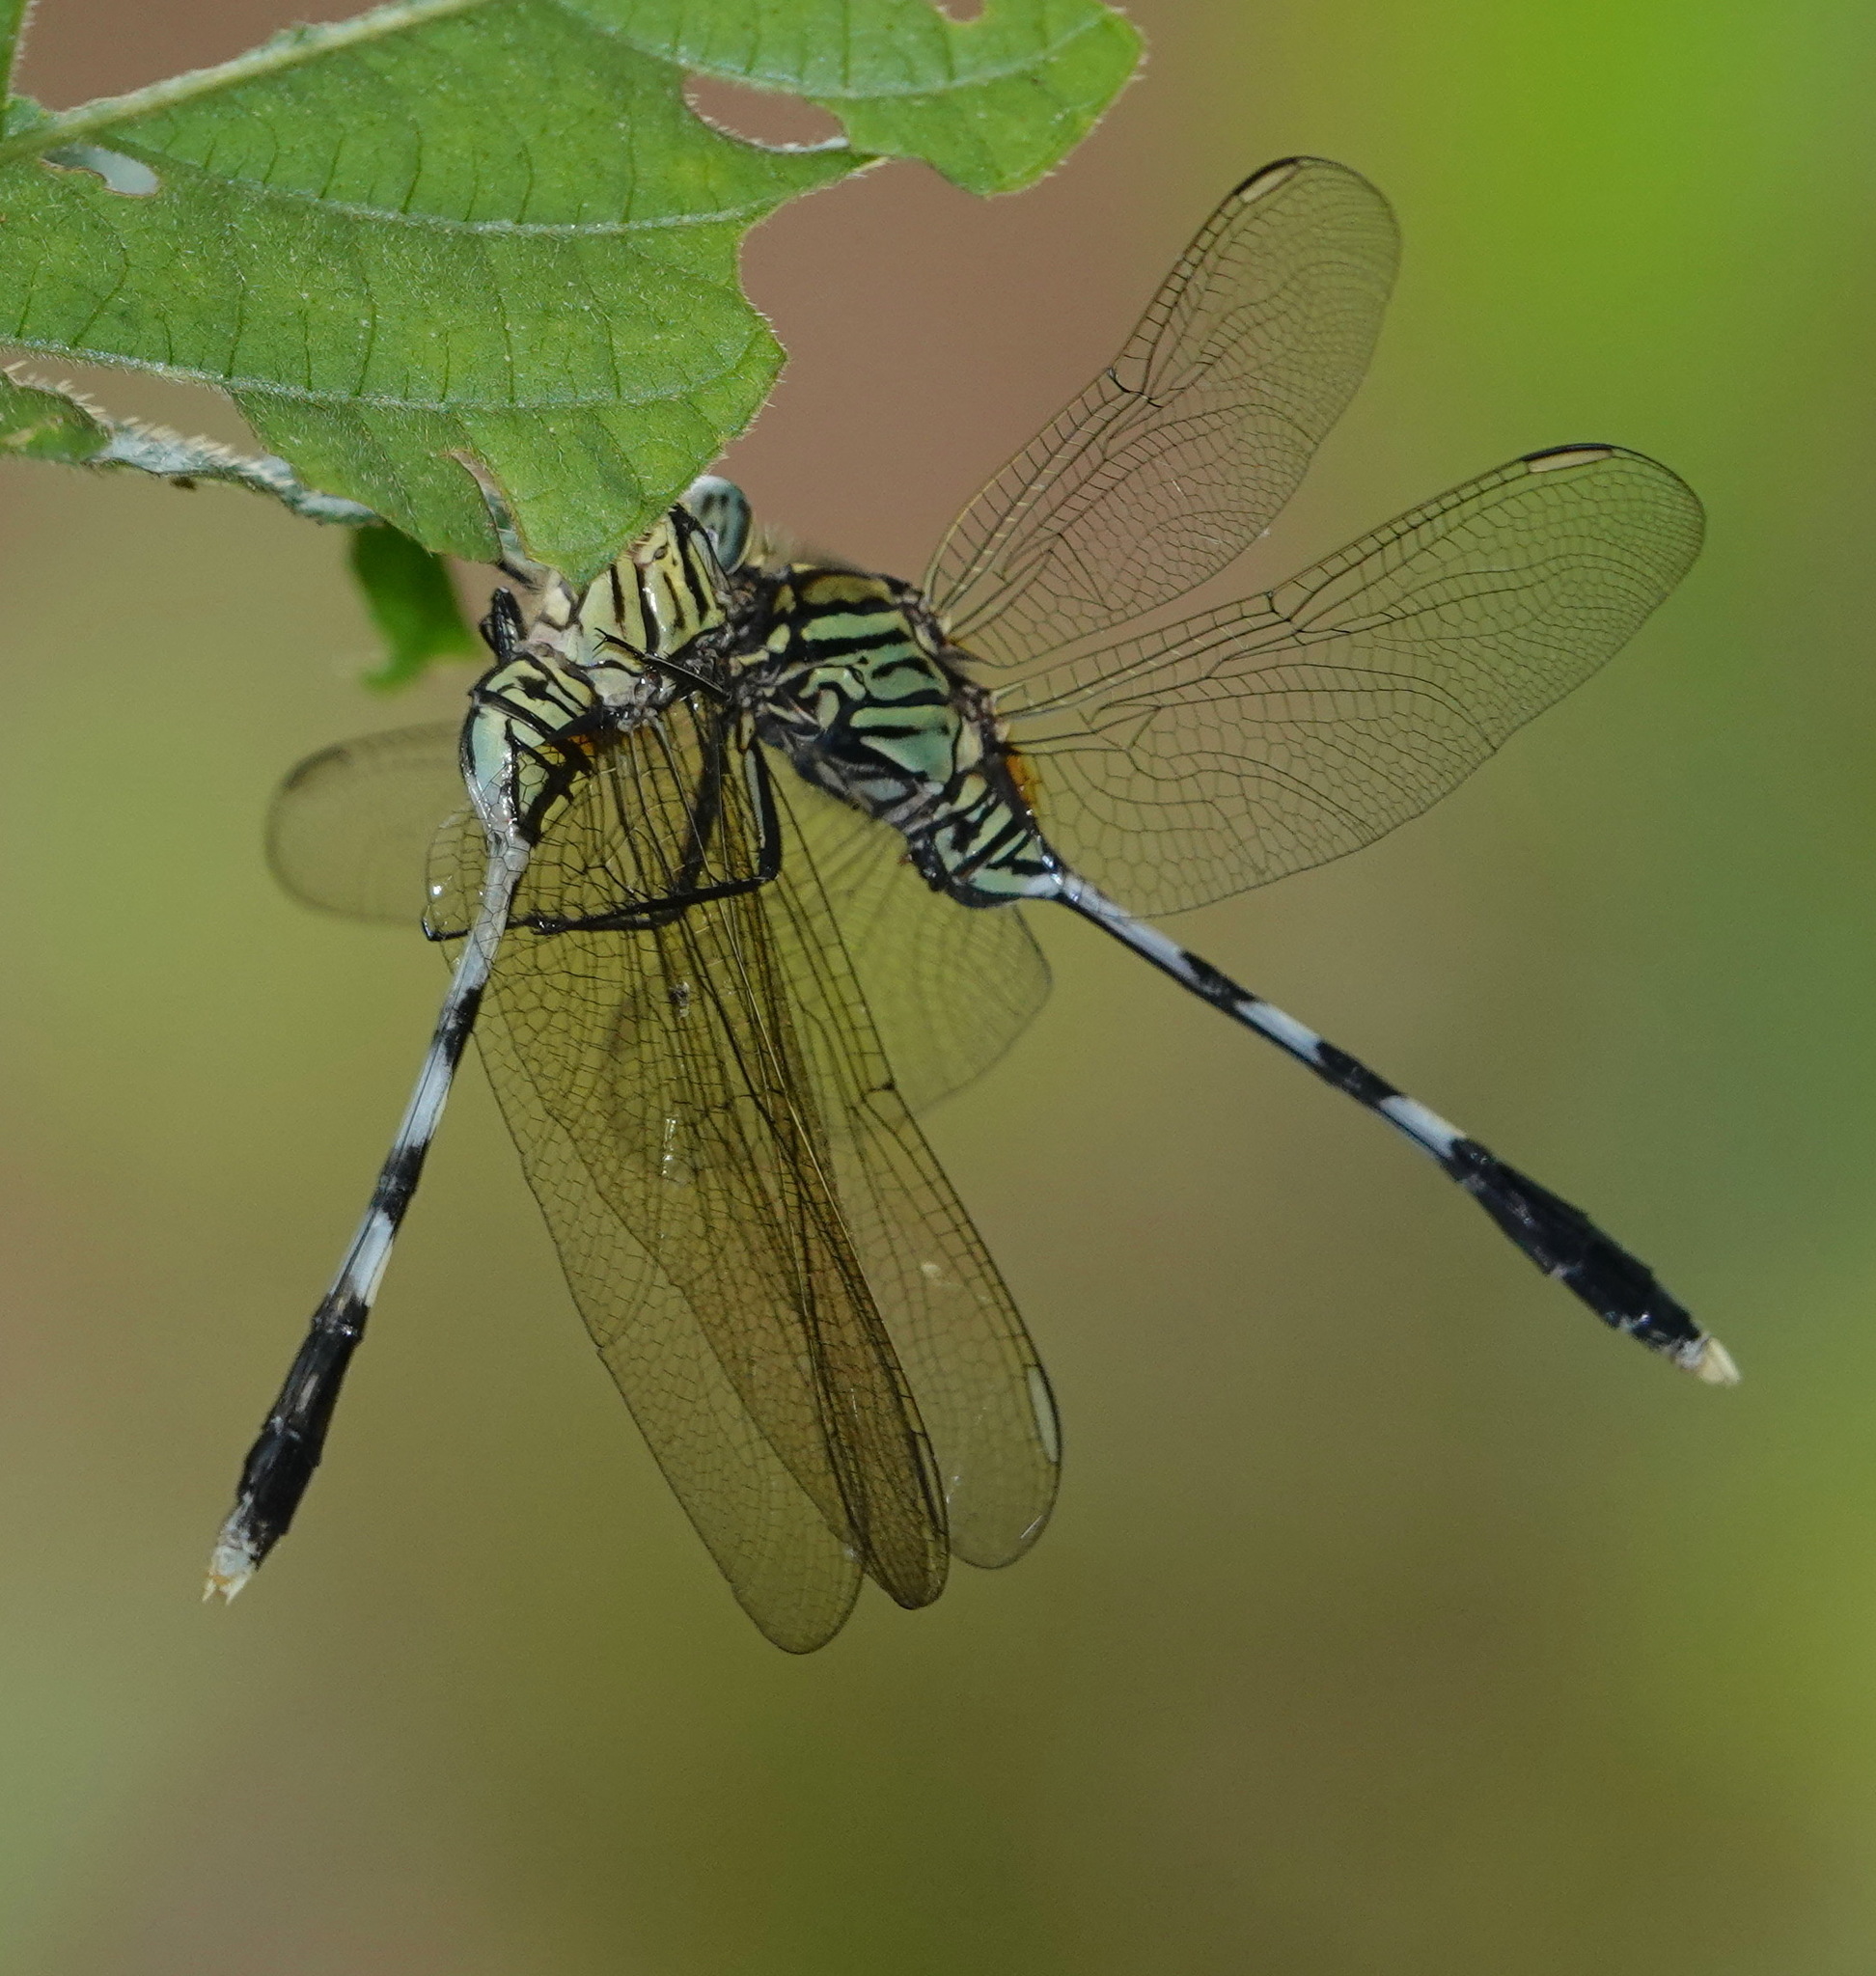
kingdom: Animalia
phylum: Arthropoda
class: Insecta
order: Odonata
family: Libellulidae
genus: Orthetrum
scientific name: Orthetrum sabina
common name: Slender skimmer
